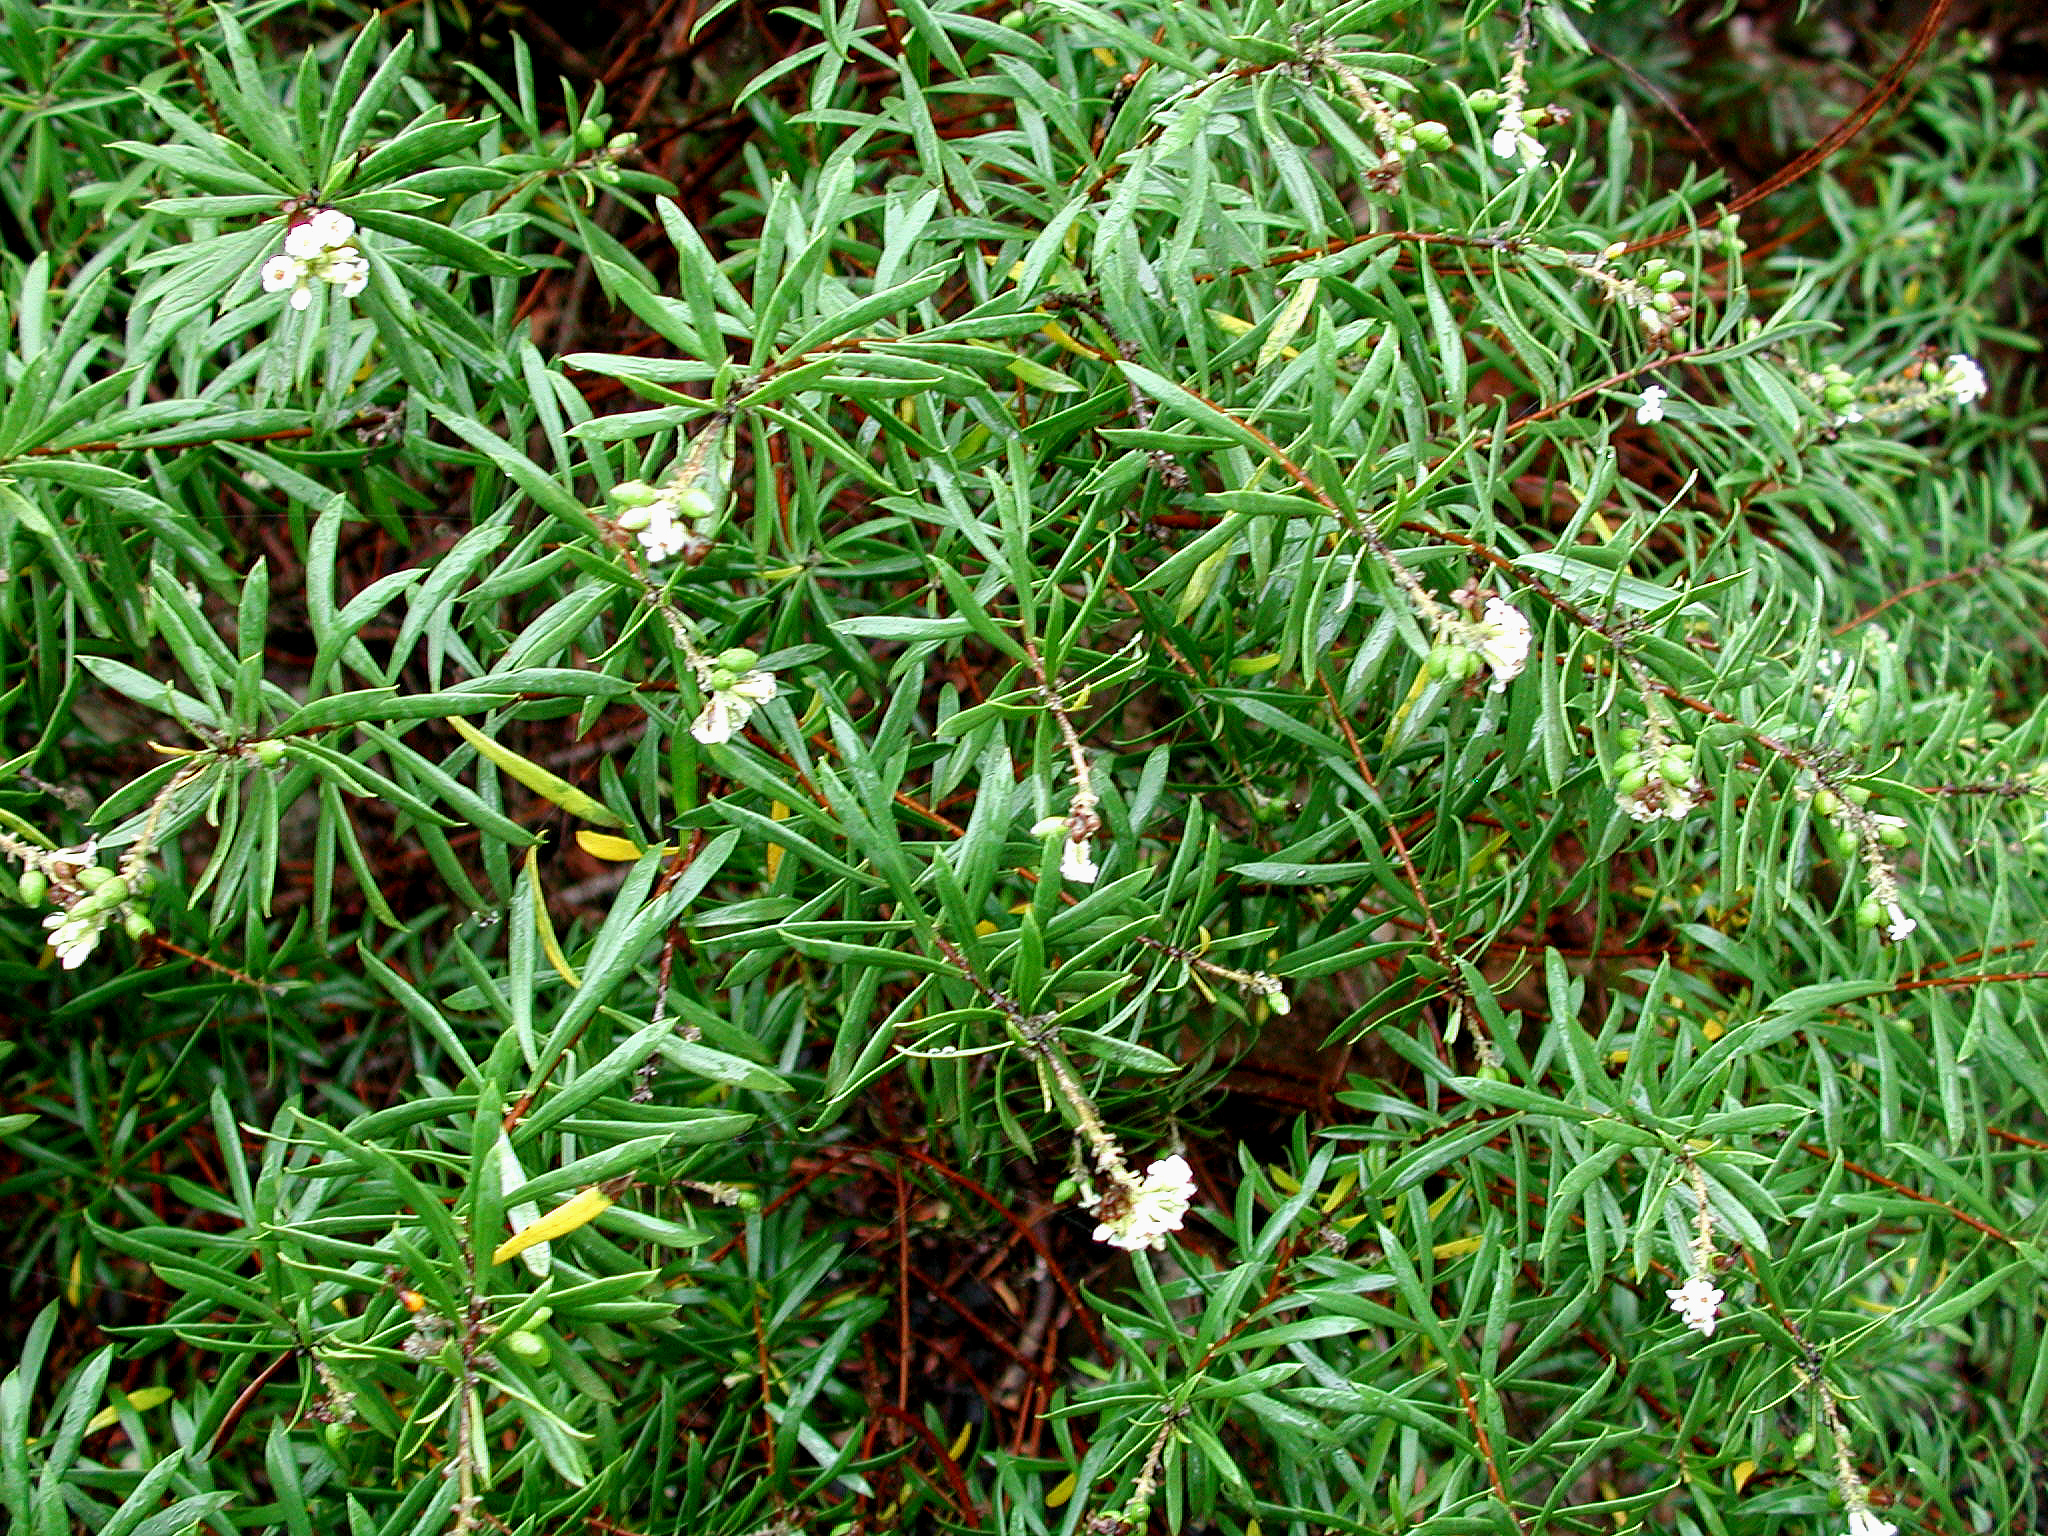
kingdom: Plantae
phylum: Tracheophyta
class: Magnoliopsida
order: Malvales
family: Thymelaeaceae
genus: Daphne
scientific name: Daphne gnidium
